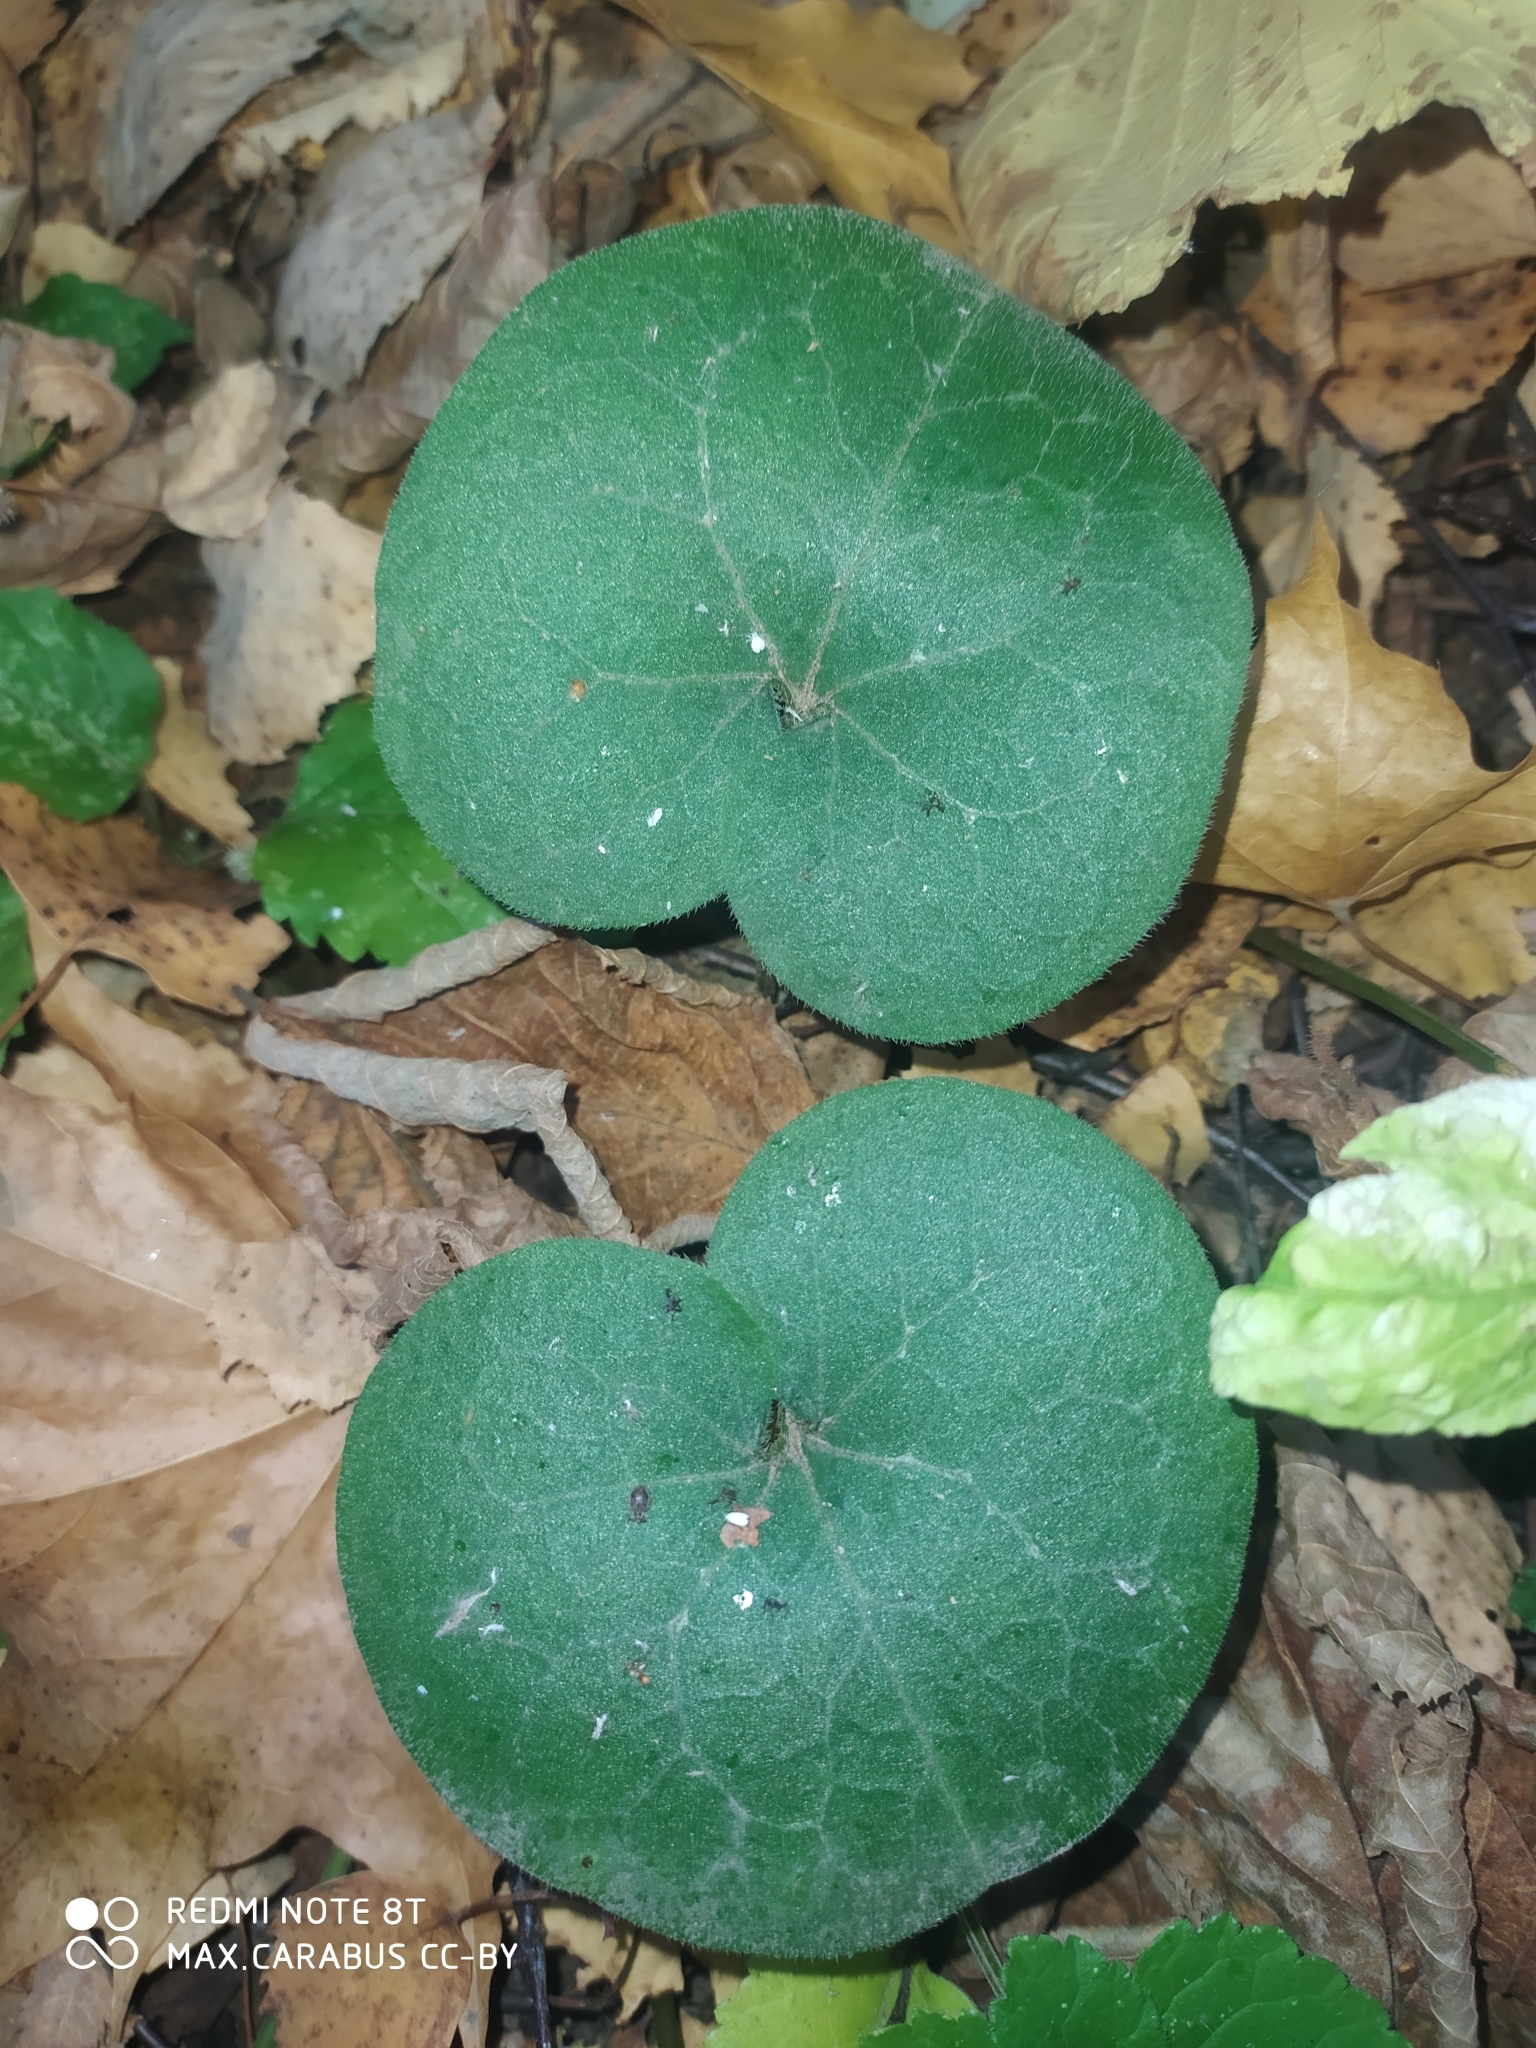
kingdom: Plantae
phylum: Tracheophyta
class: Magnoliopsida
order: Piperales
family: Aristolochiaceae
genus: Asarum
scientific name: Asarum europaeum
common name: Asarabacca
